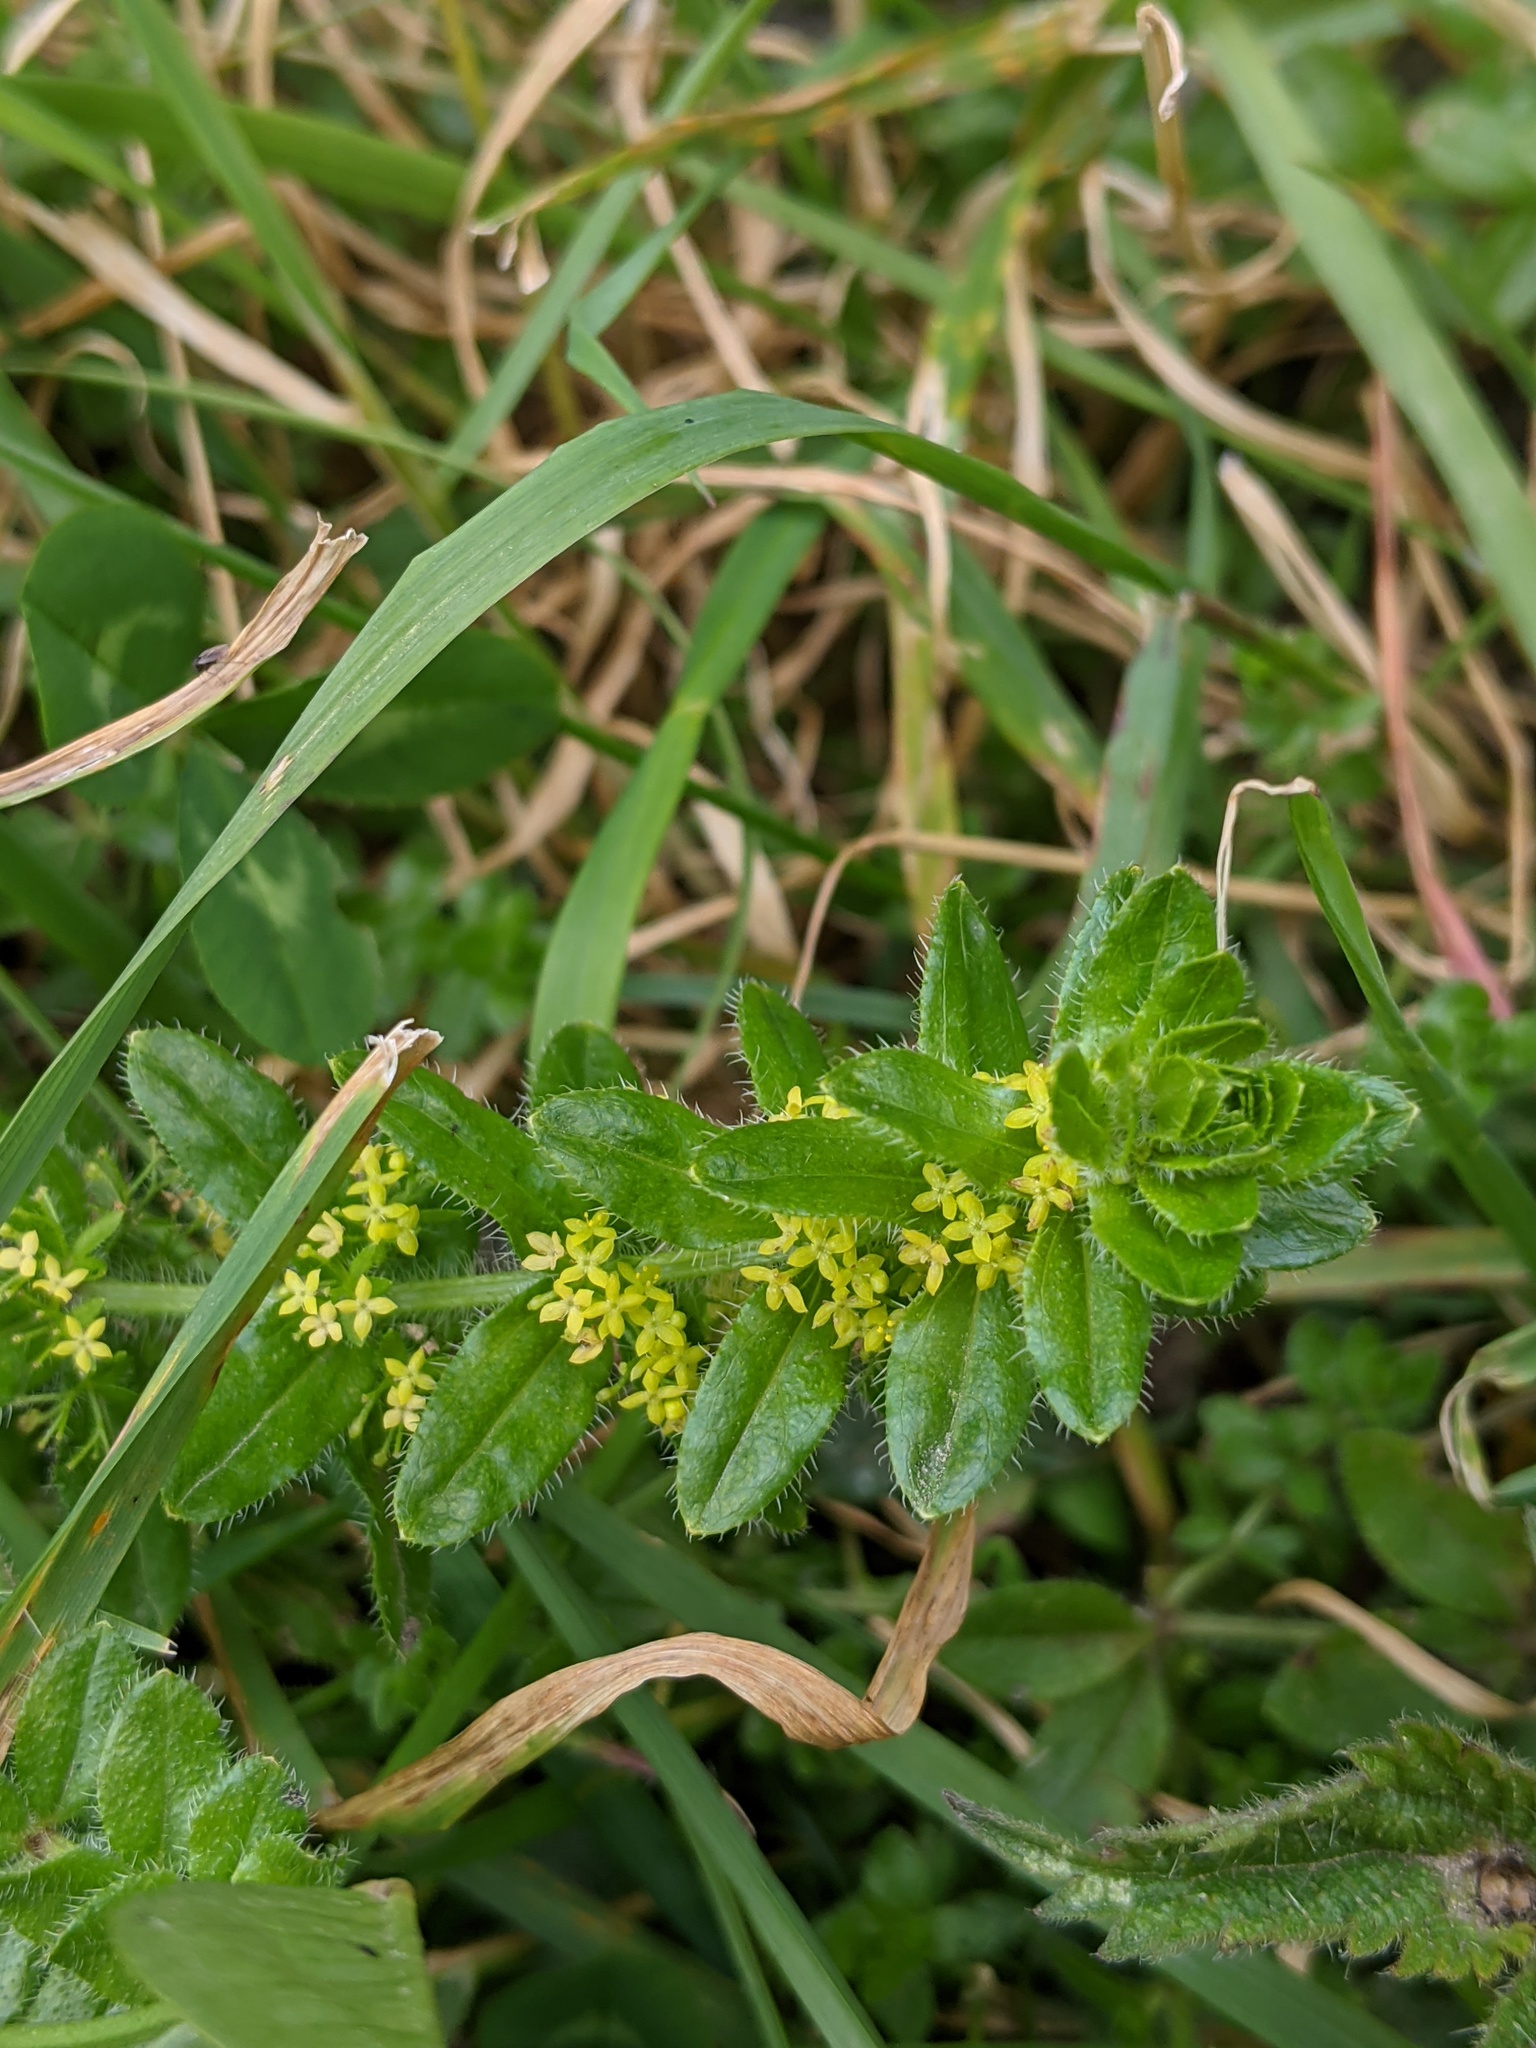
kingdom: Plantae
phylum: Tracheophyta
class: Magnoliopsida
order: Gentianales
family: Rubiaceae
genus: Cruciata
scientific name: Cruciata laevipes
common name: Crosswort
